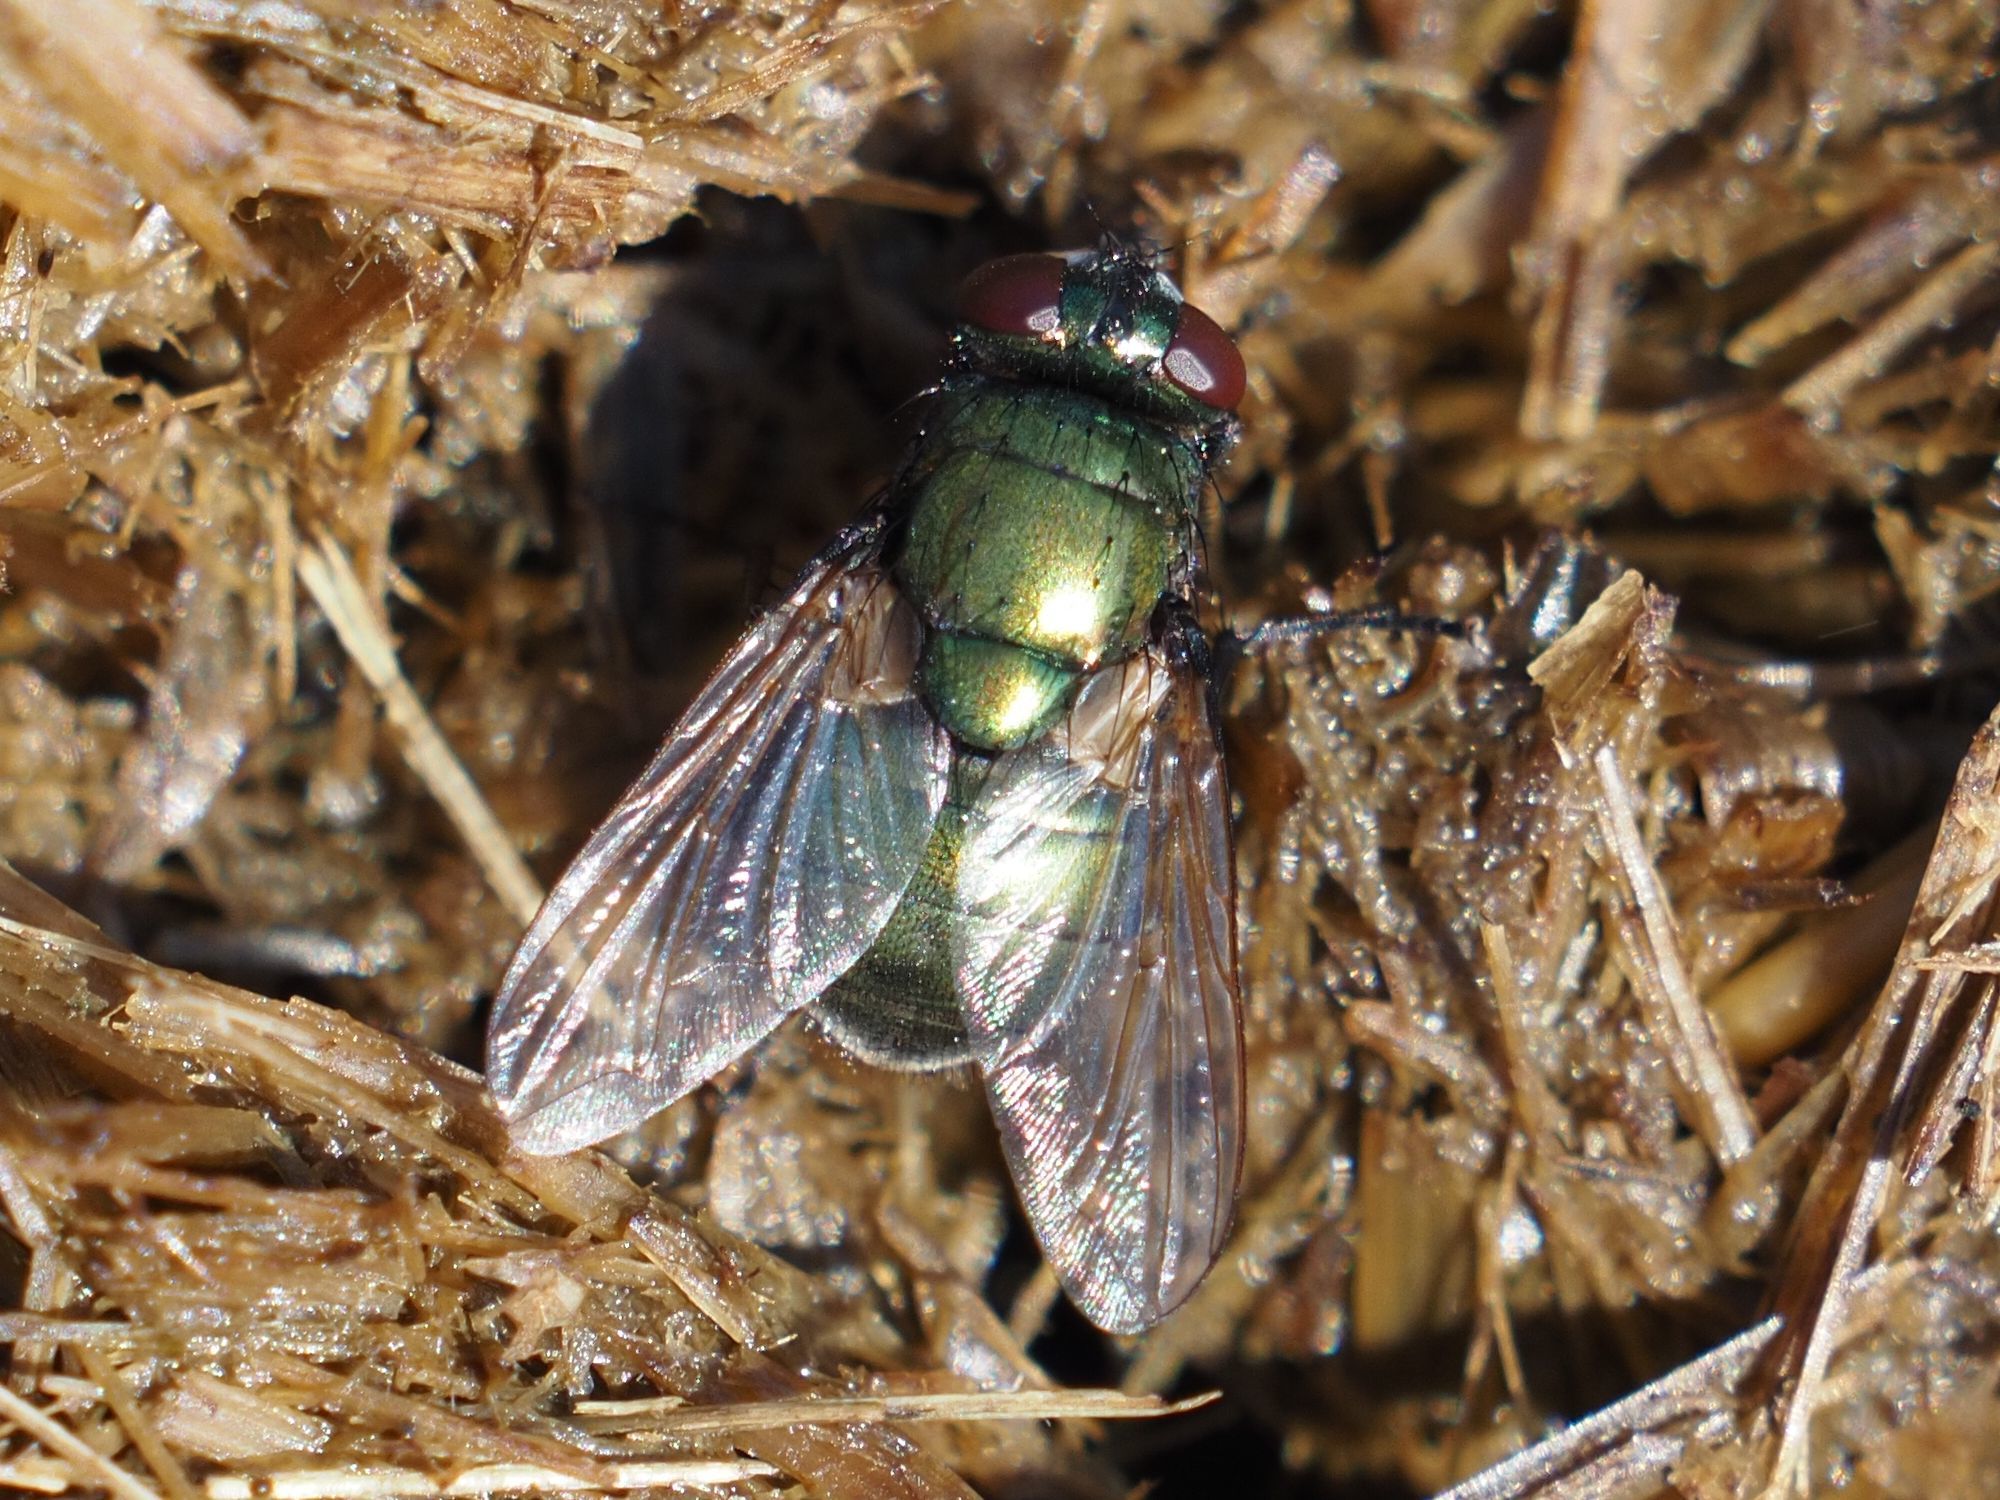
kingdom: Animalia
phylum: Arthropoda
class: Insecta
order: Diptera
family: Muscidae
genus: Neomyia
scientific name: Neomyia cornicina
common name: House fly
